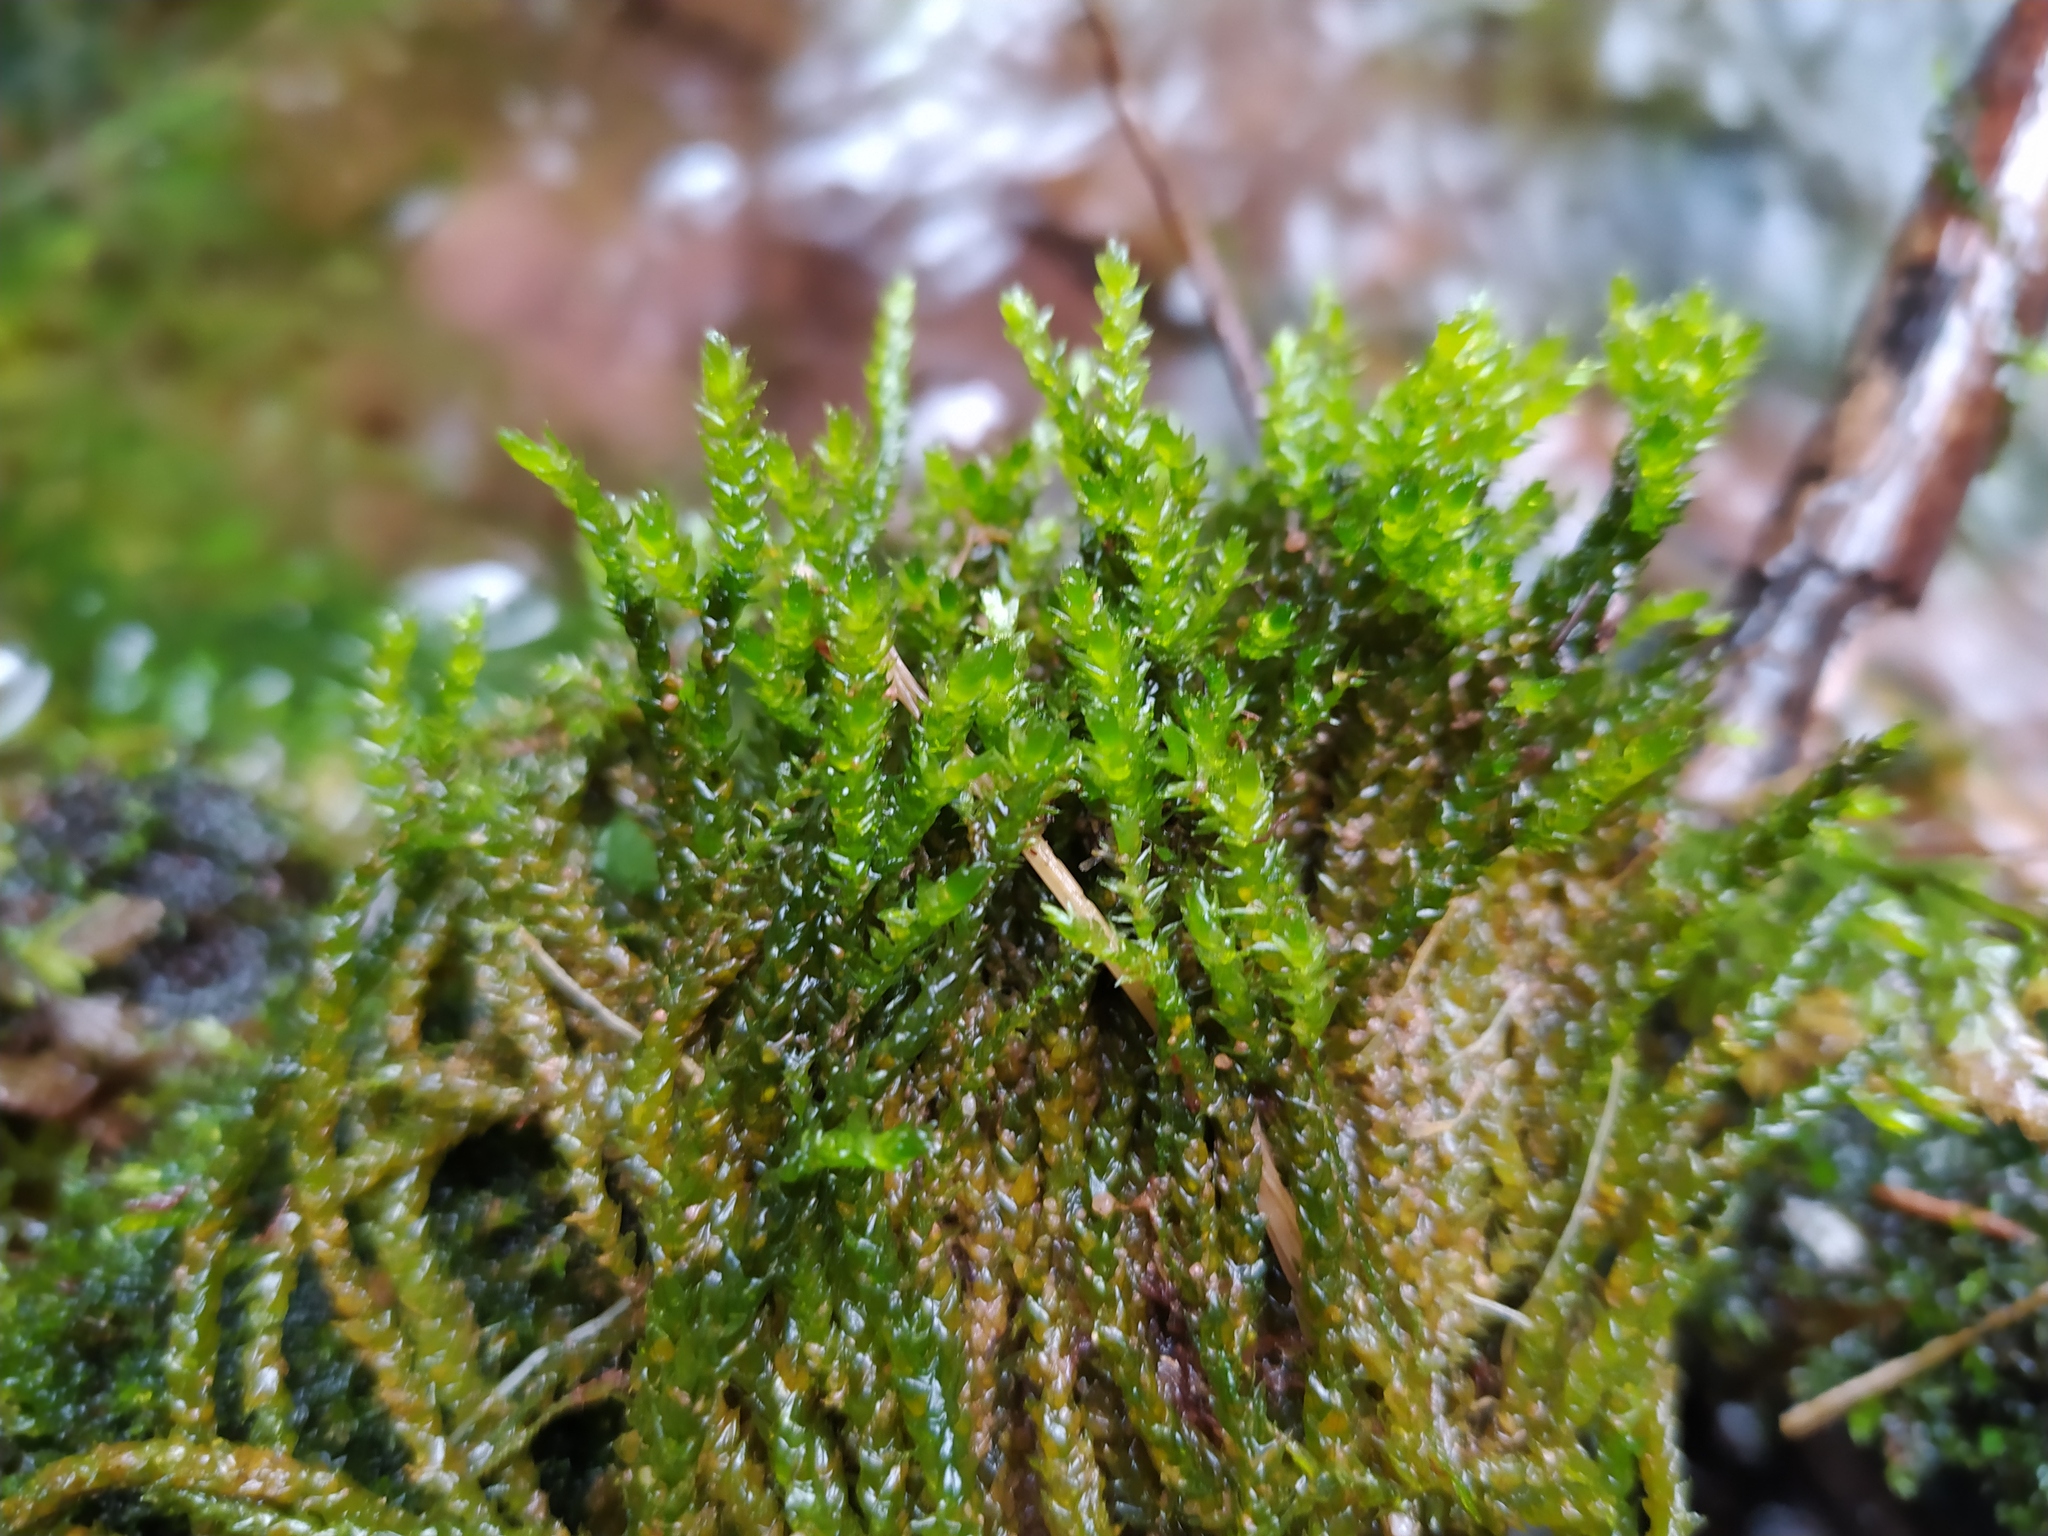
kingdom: Plantae
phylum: Bryophyta
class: Bryopsida
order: Hypnales
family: Brachytheciaceae
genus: Rhynchostegium
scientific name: Rhynchostegium riparioides
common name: Platyhypnidium moss
